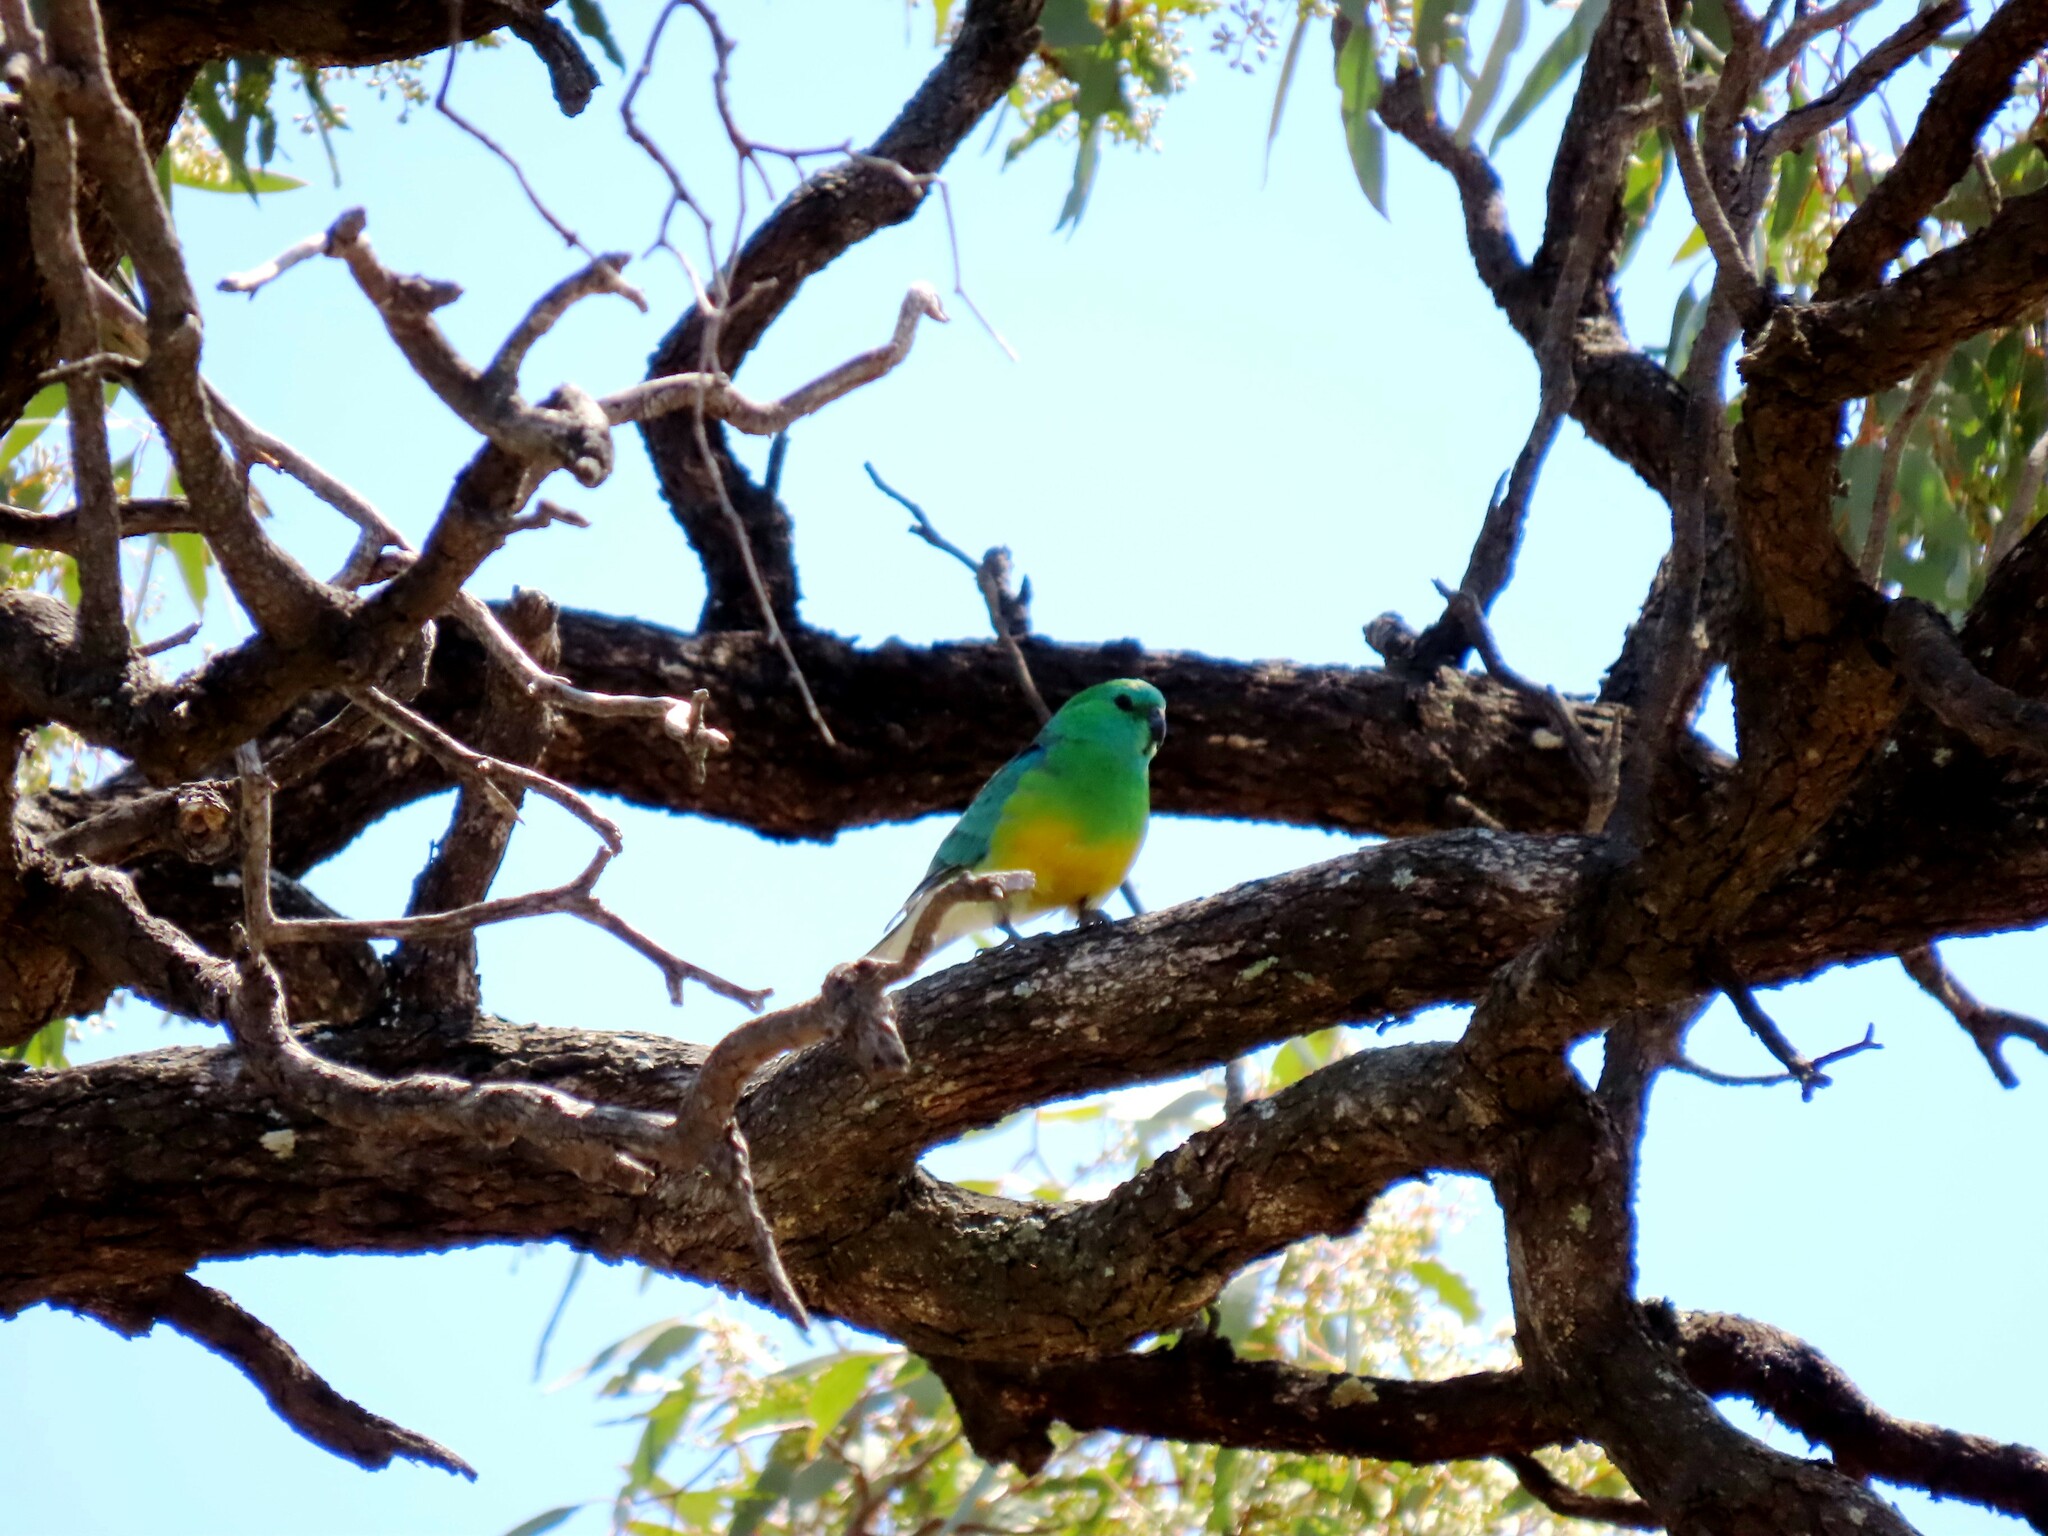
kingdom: Animalia
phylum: Chordata
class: Aves
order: Psittaciformes
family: Psittacidae
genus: Psephotus
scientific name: Psephotus haematonotus
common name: Red-rumped parrot
